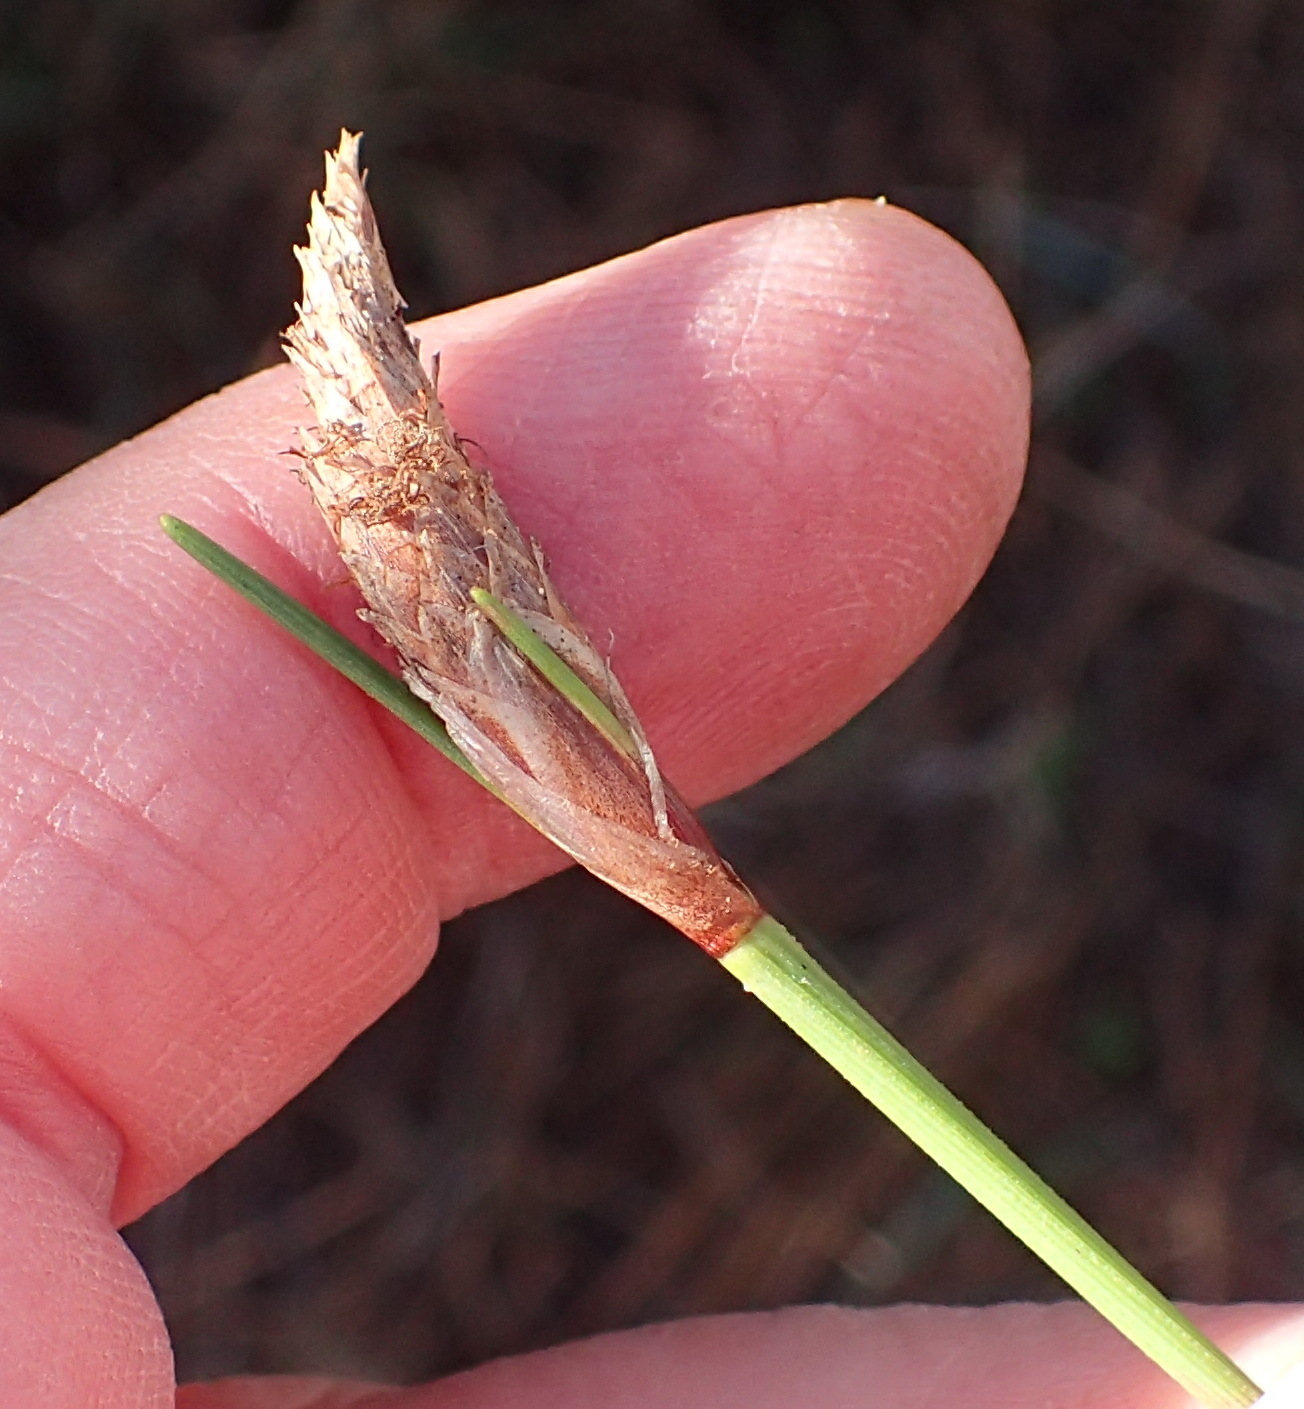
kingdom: Plantae
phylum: Tracheophyta
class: Liliopsida
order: Poales
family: Cyperaceae
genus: Ficinia
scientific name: Ficinia deusta
